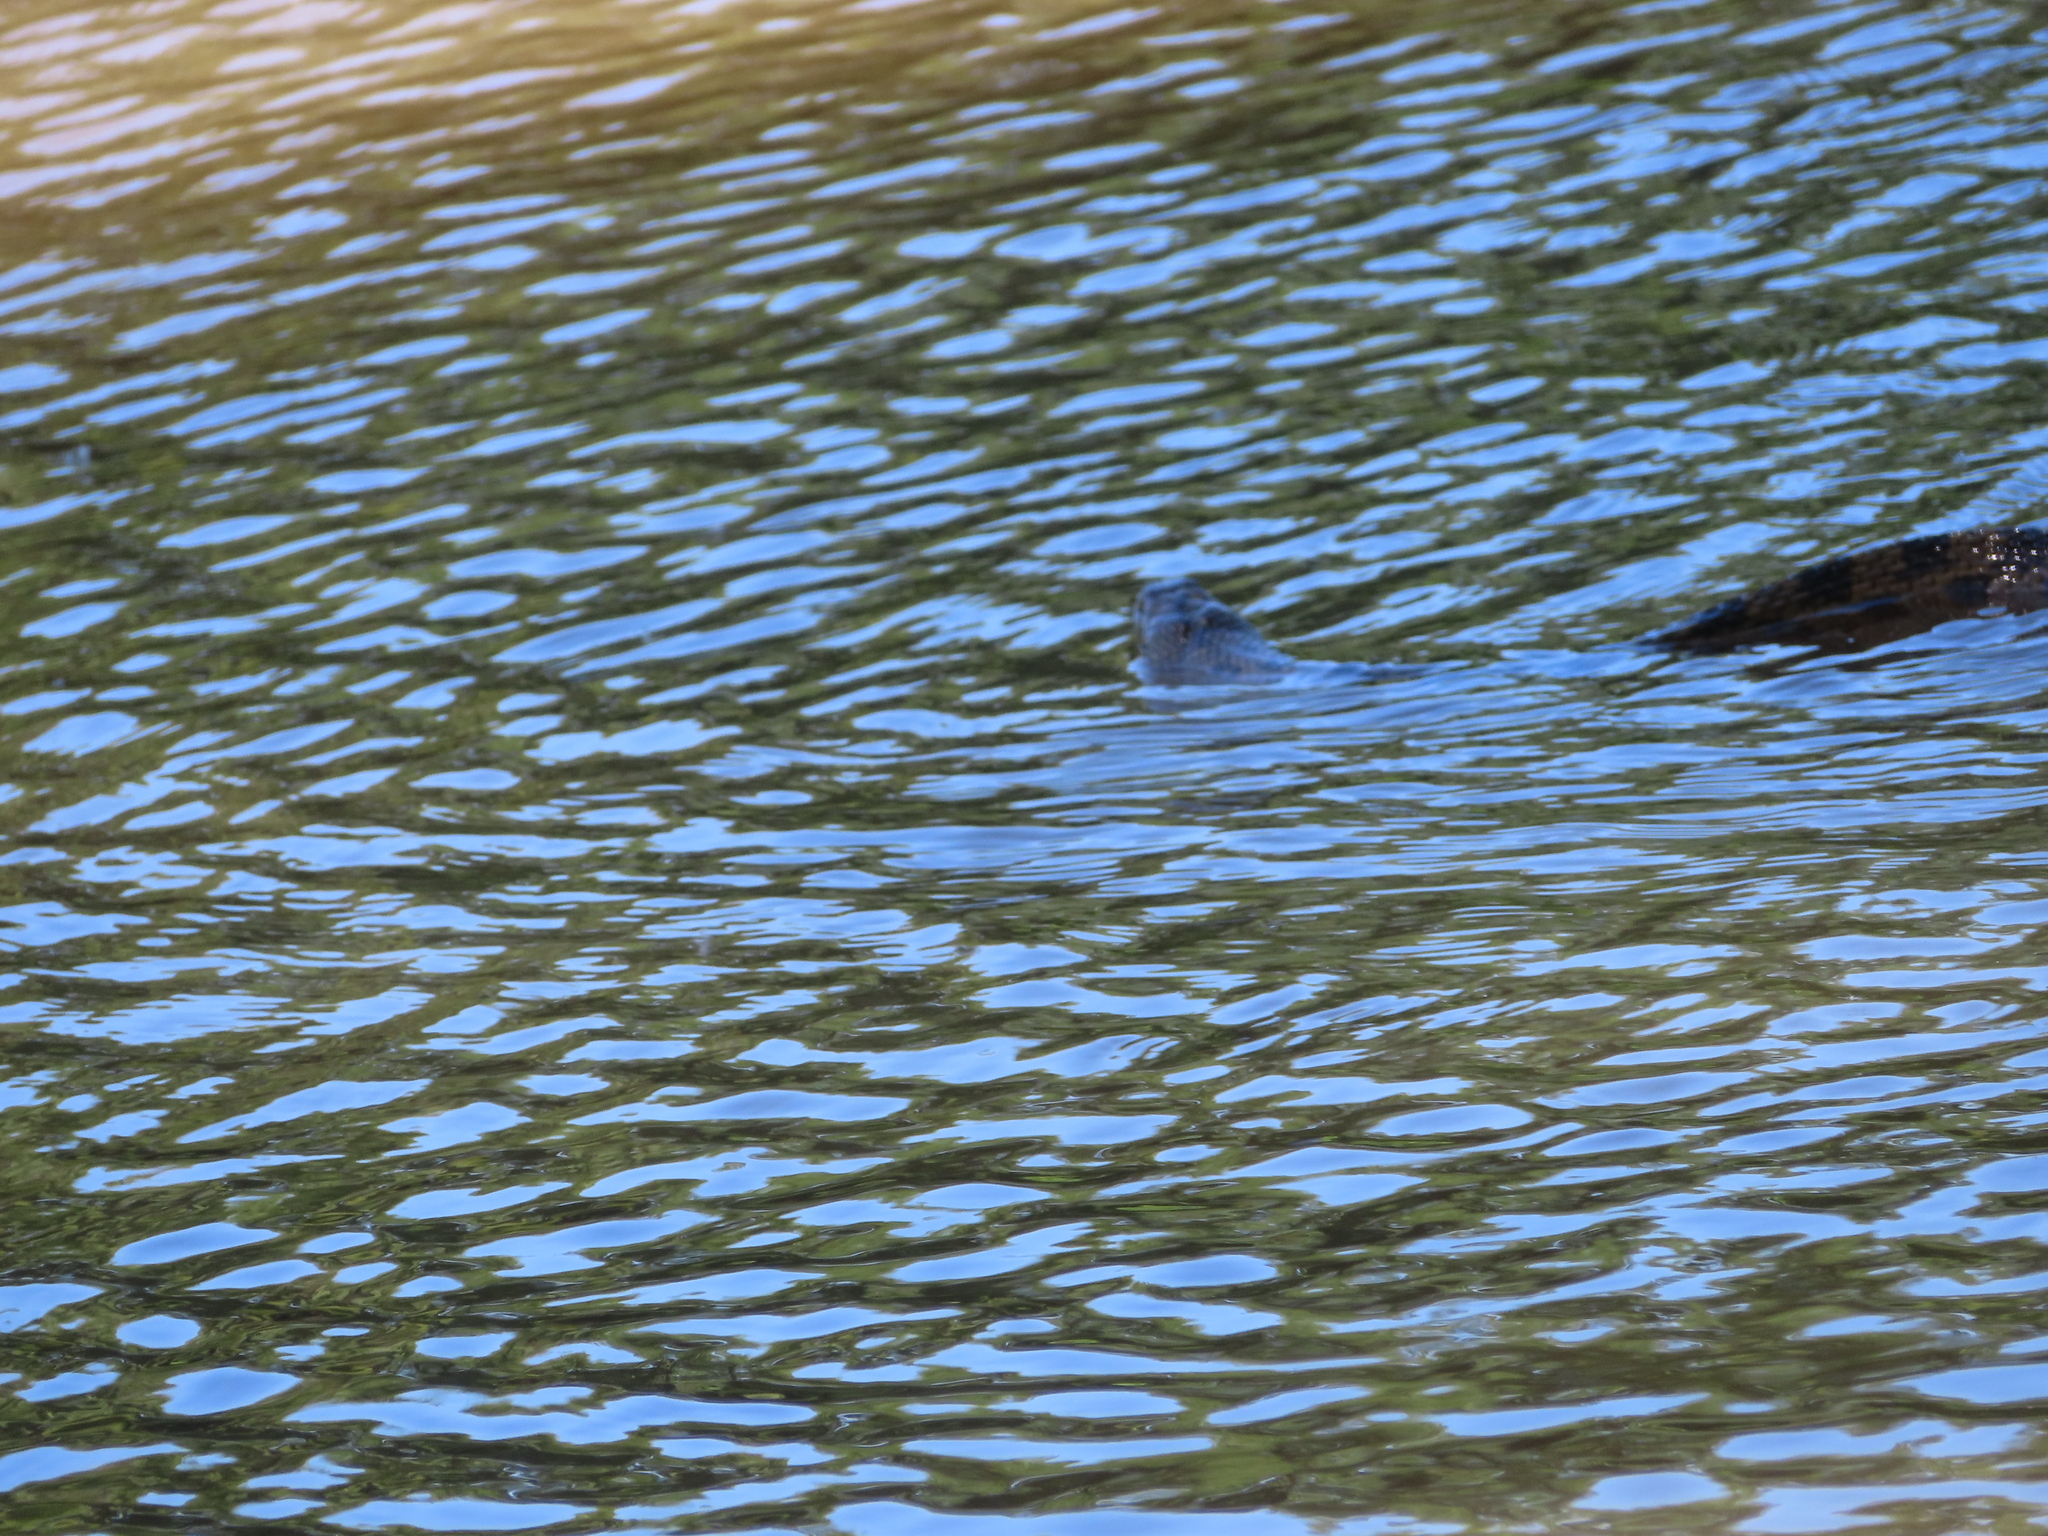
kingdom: Animalia
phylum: Chordata
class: Squamata
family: Colubridae
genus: Nerodia
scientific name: Nerodia rhombifer
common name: Diamondback water snake
